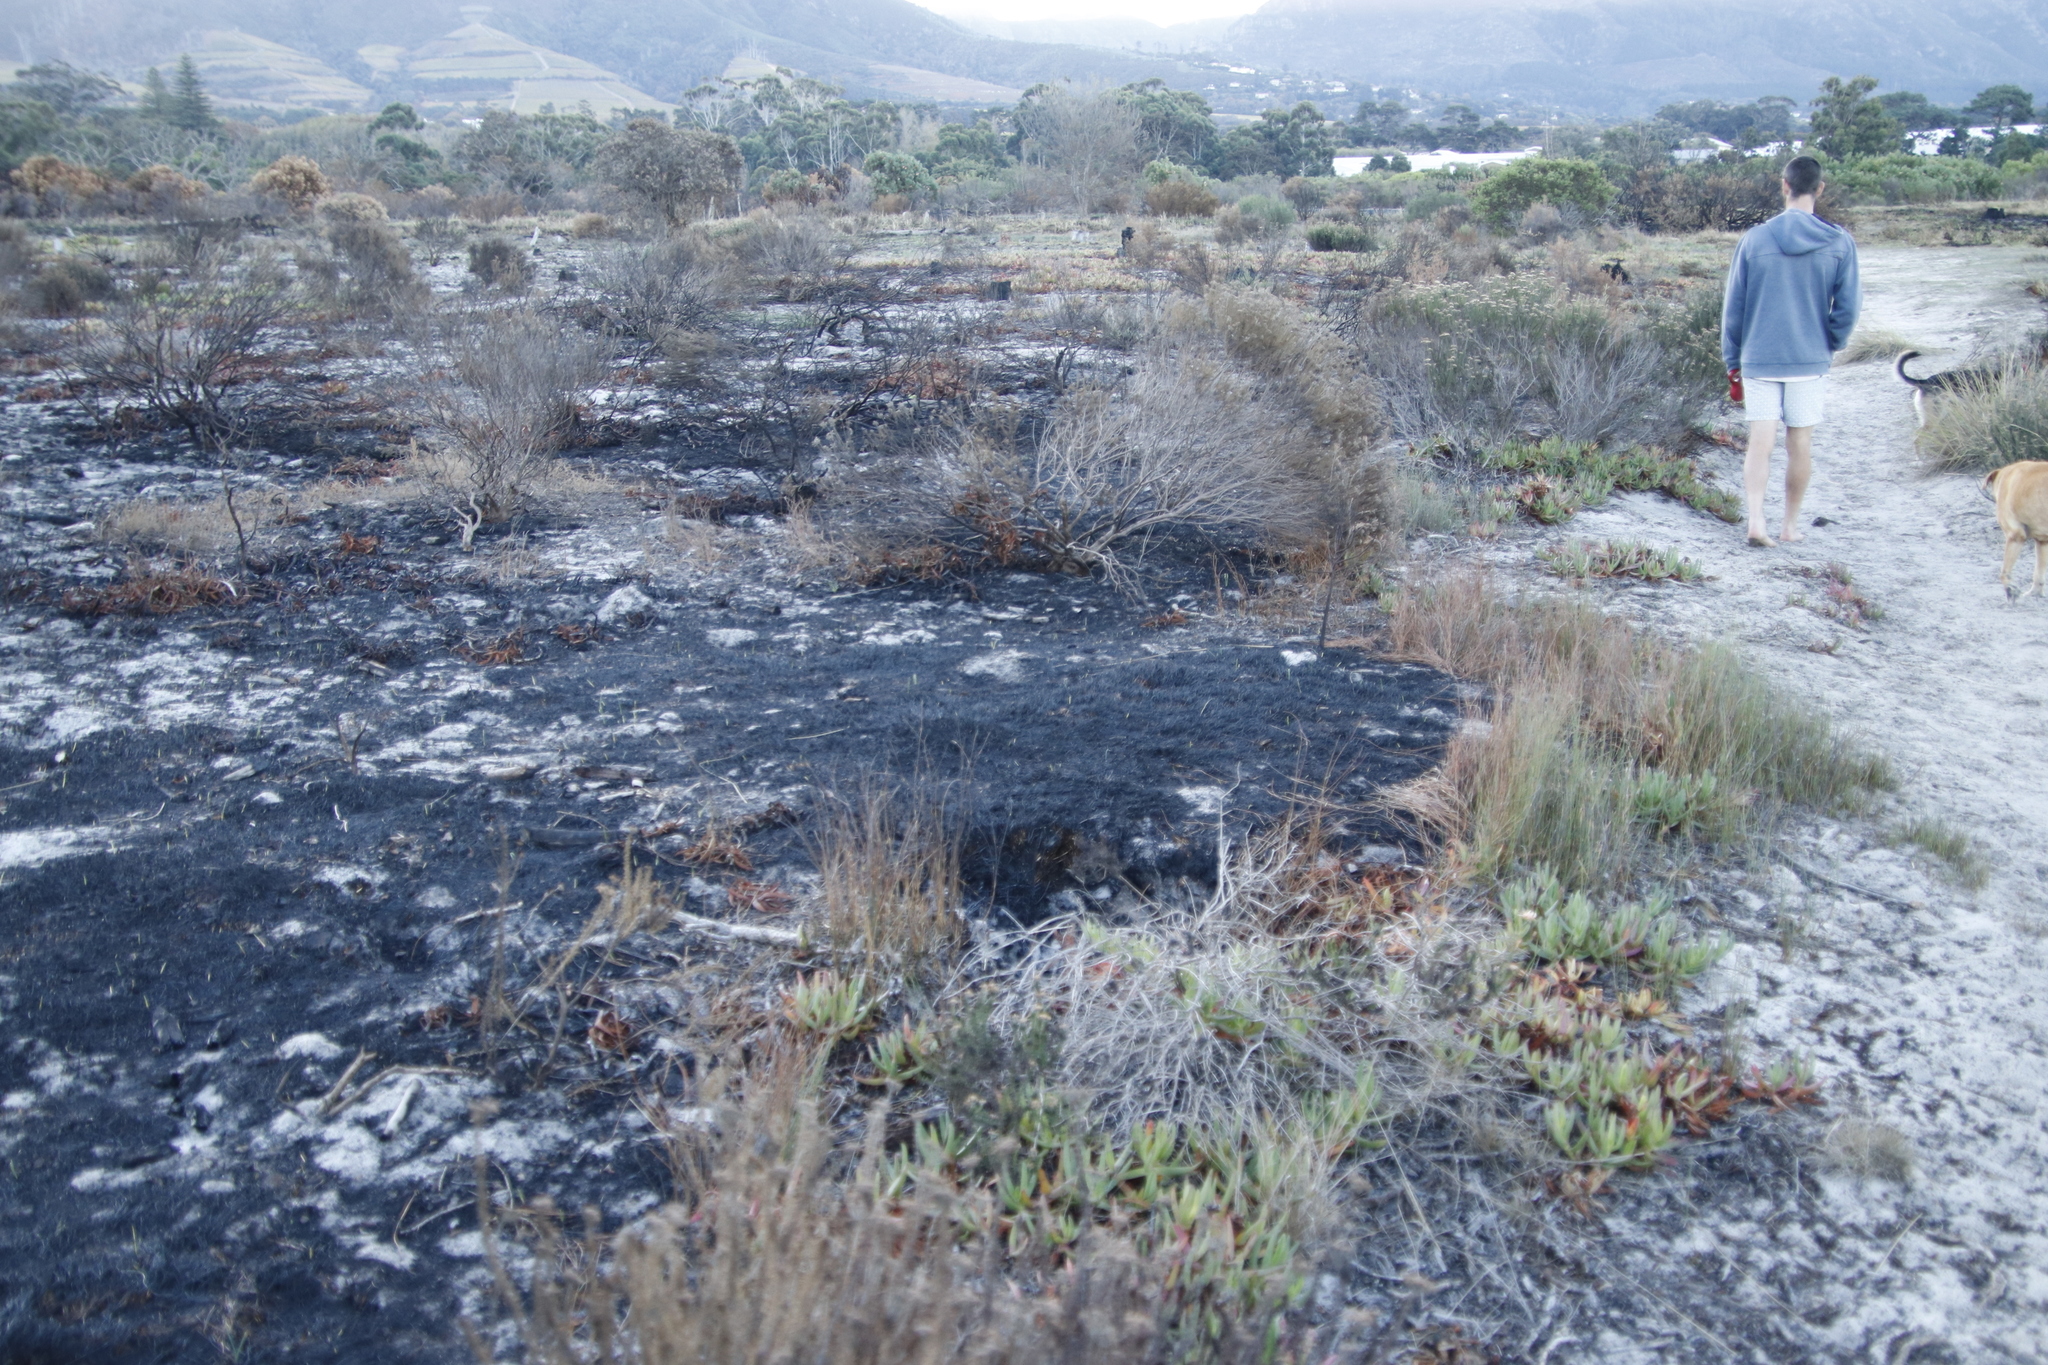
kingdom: Plantae
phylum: Tracheophyta
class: Liliopsida
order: Poales
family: Restionaceae
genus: Willdenowia
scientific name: Willdenowia sulcata
